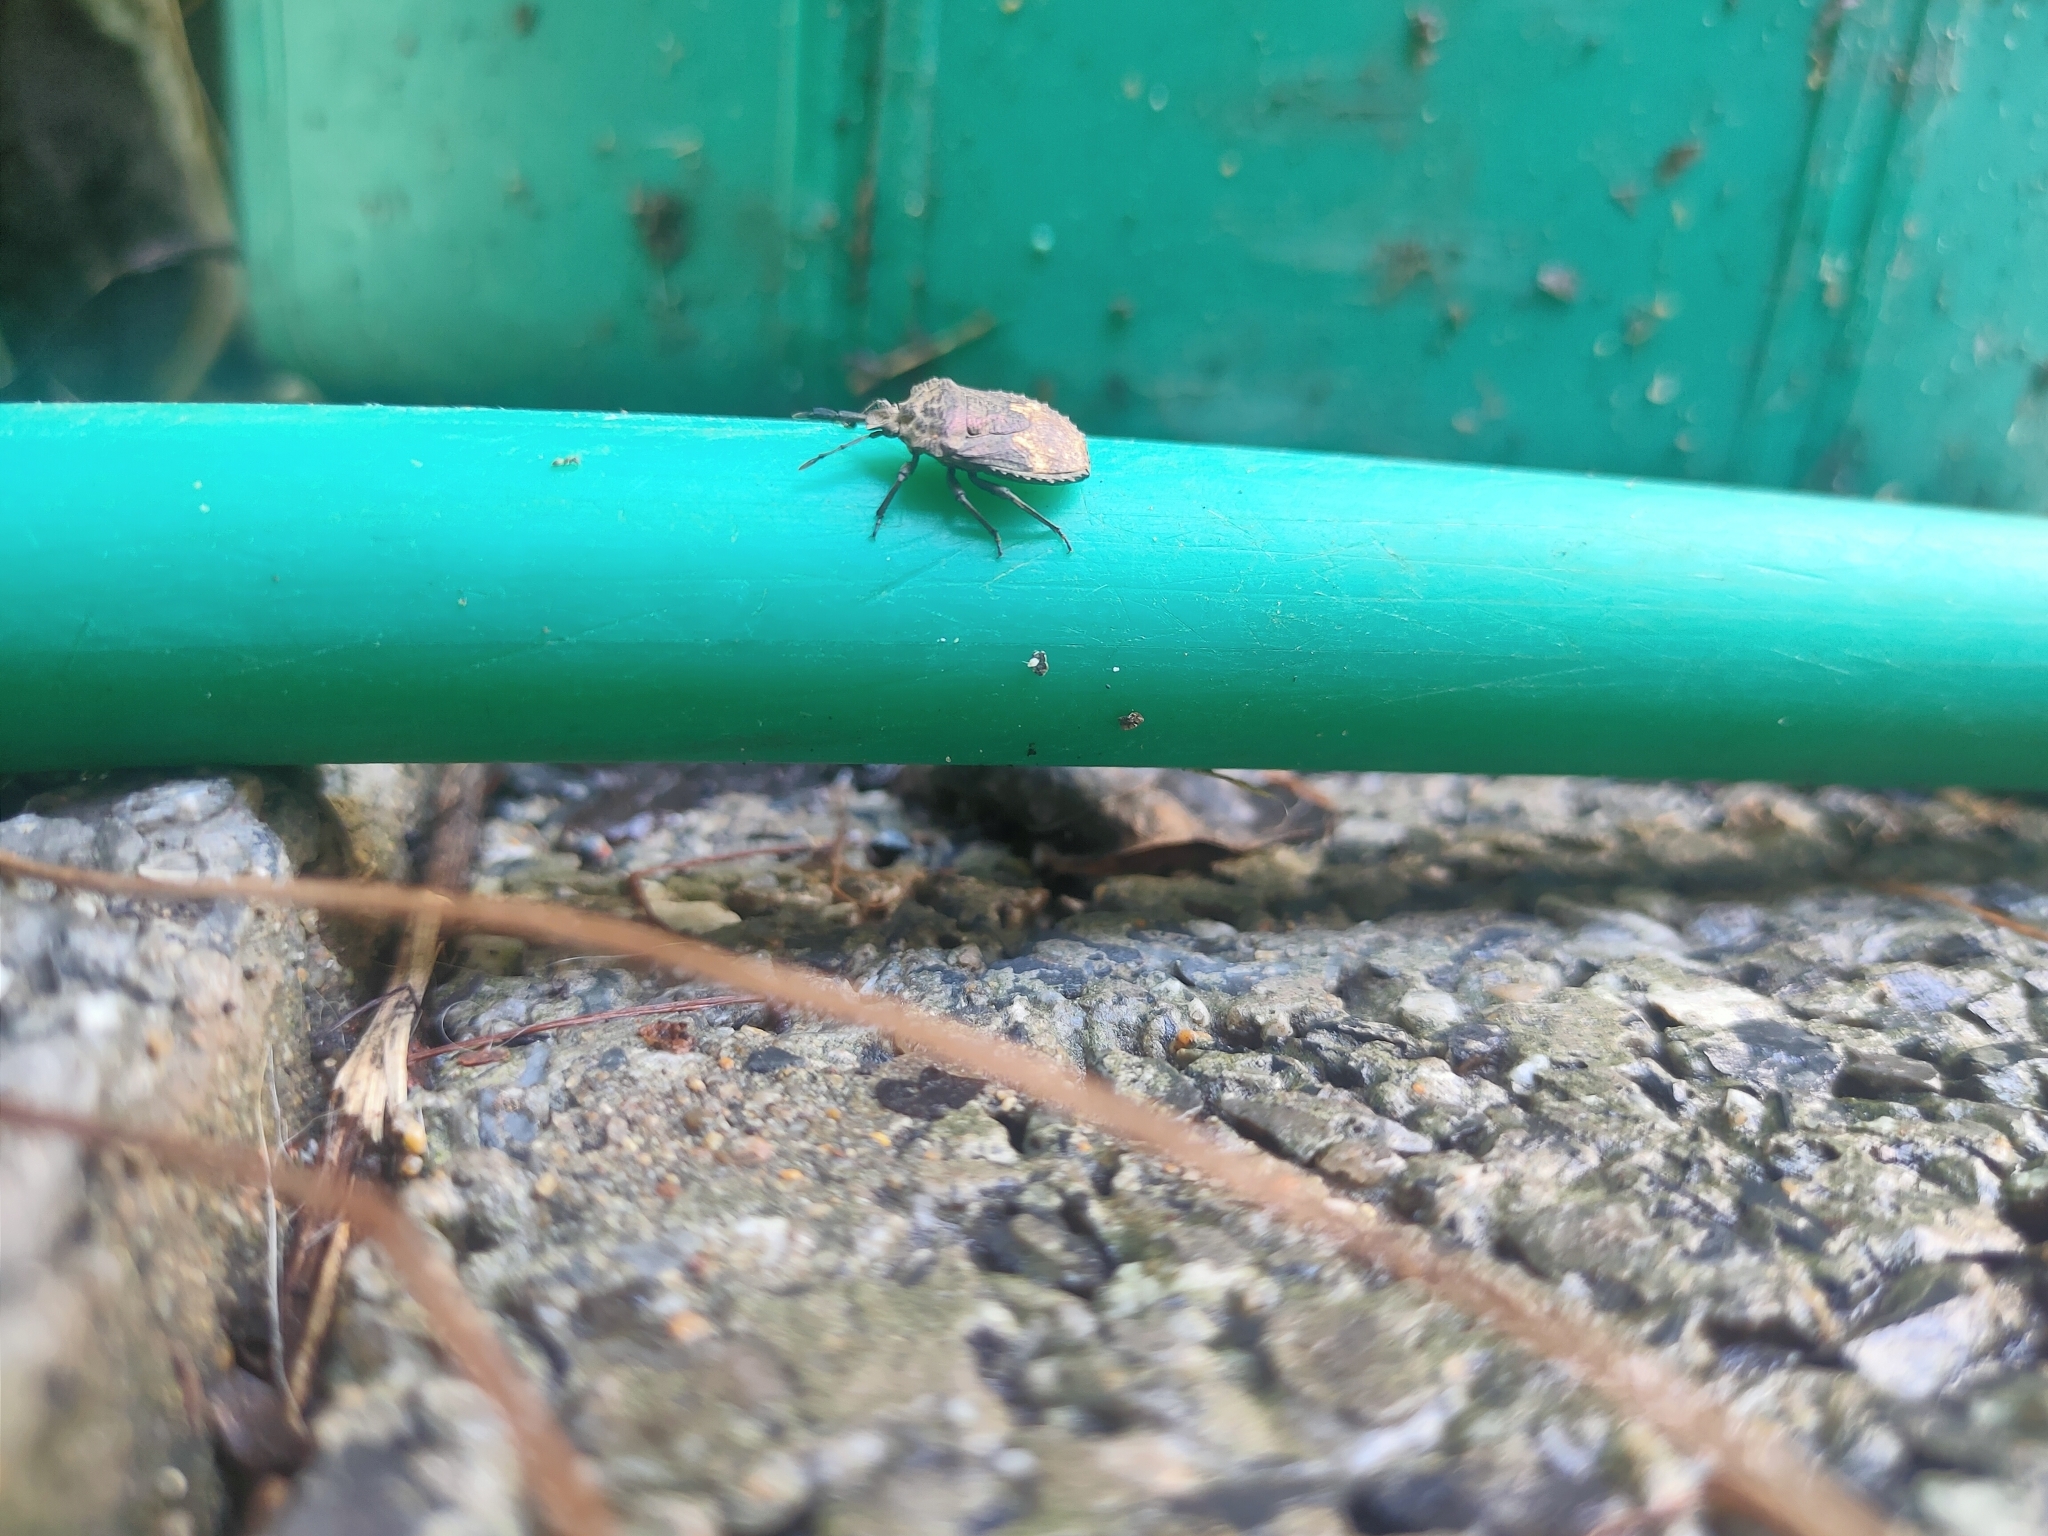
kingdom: Animalia
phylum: Arthropoda
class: Insecta
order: Hemiptera
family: Dinidoridae
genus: Megymenum
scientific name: Megymenum brevicorne
